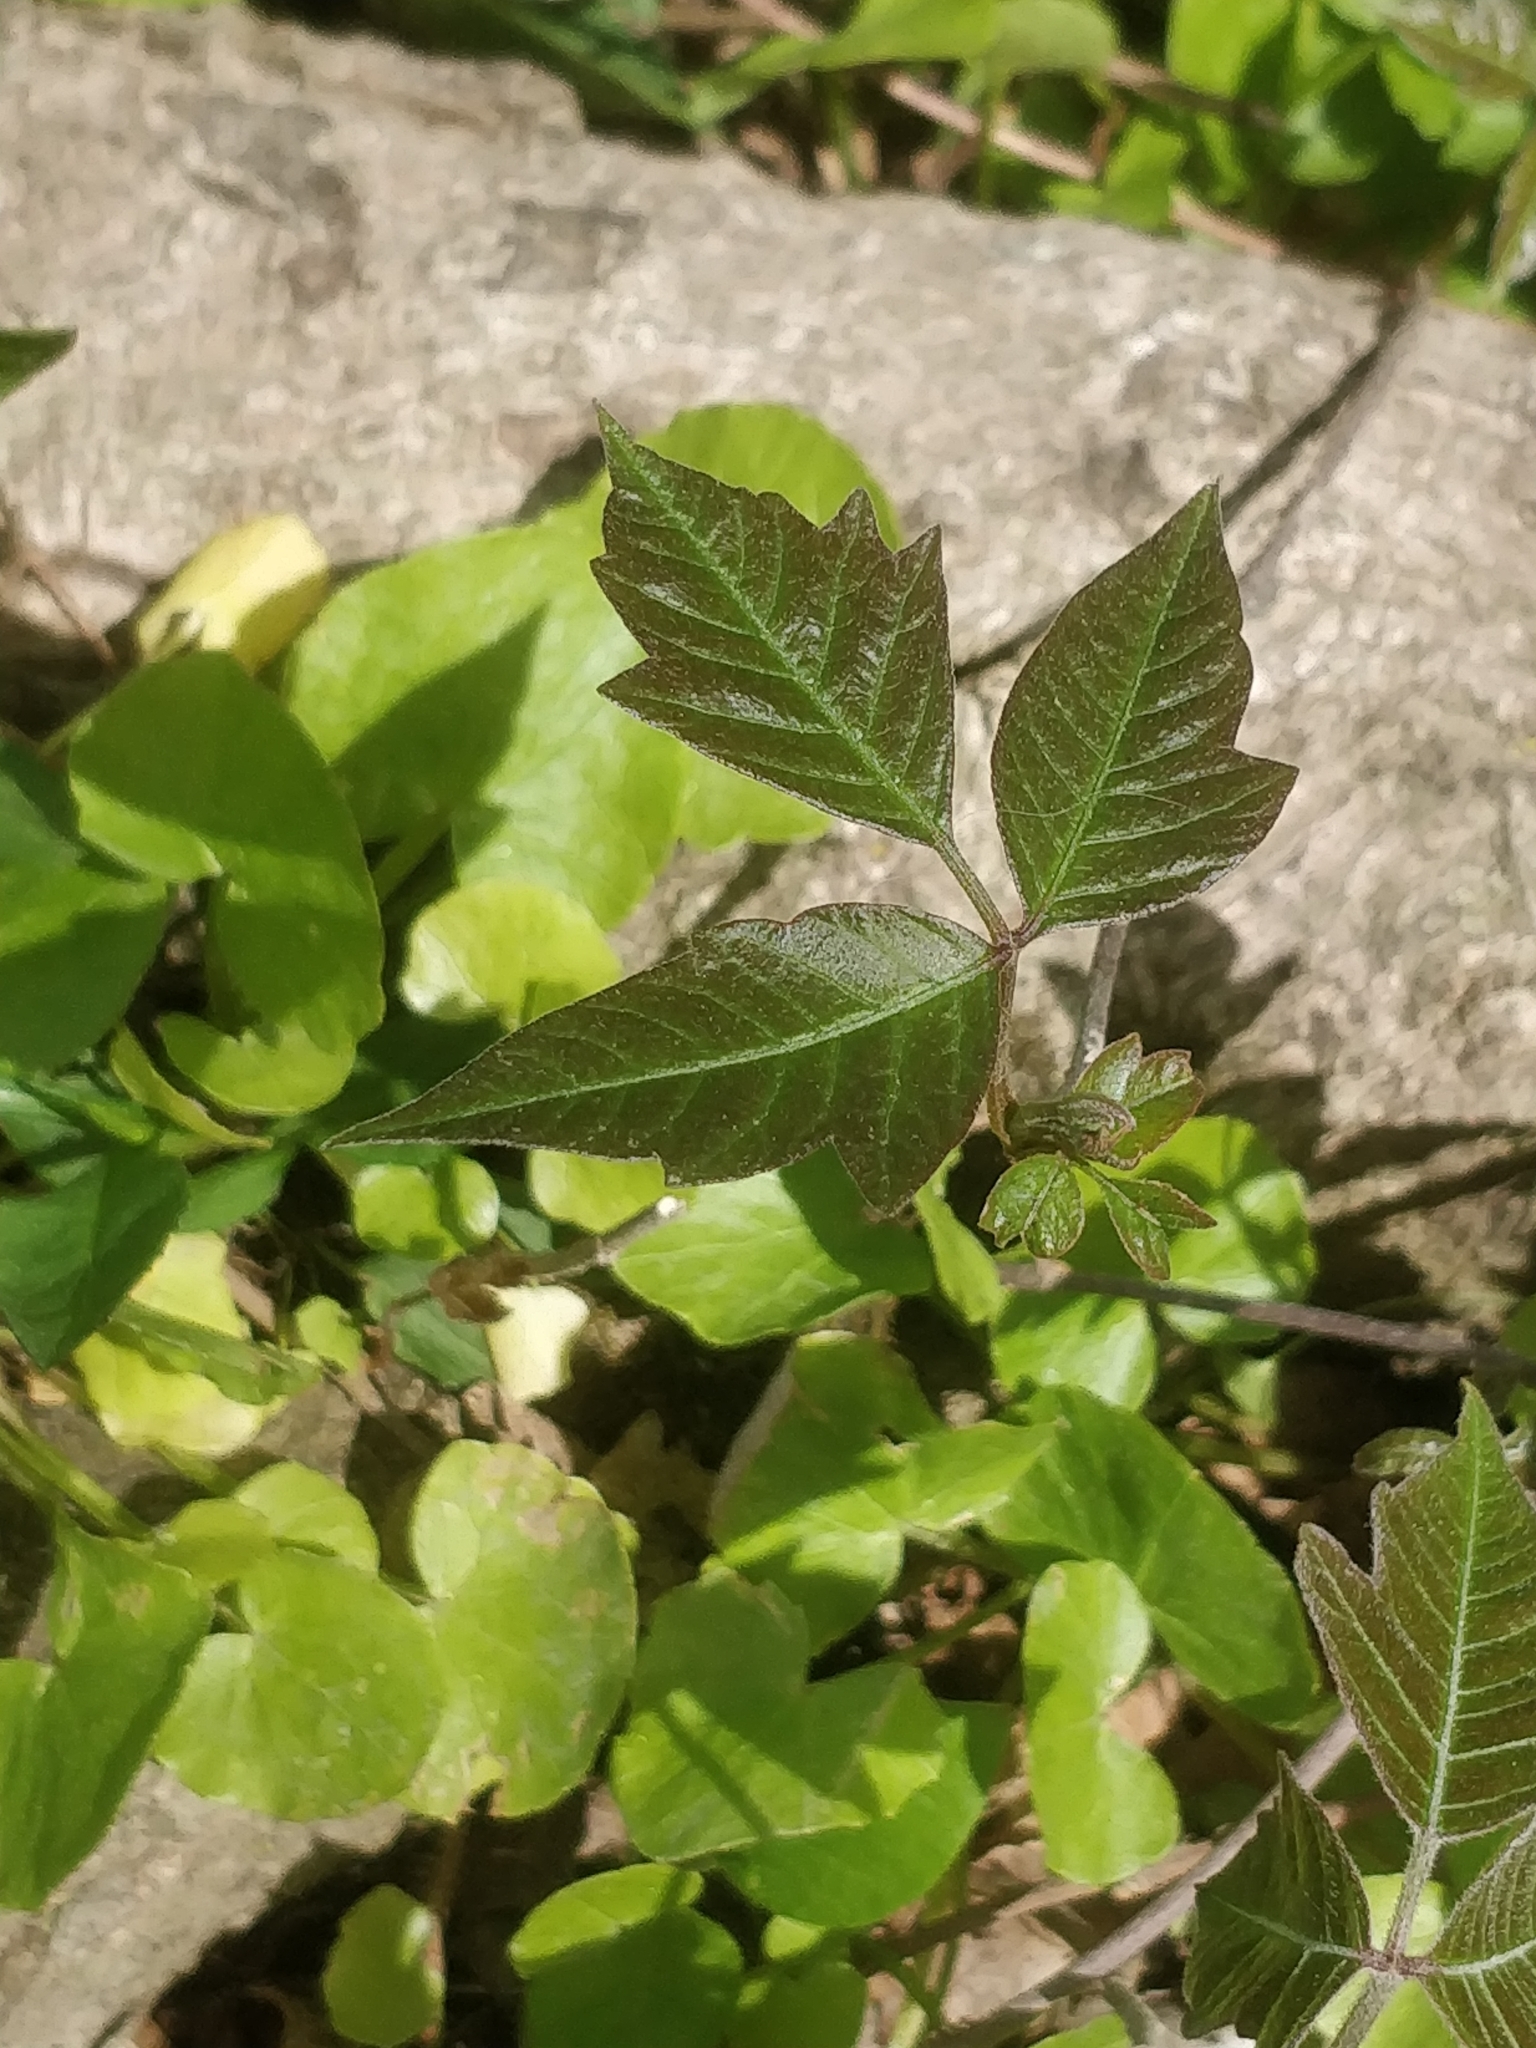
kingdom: Plantae
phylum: Tracheophyta
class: Magnoliopsida
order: Sapindales
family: Anacardiaceae
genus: Toxicodendron
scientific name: Toxicodendron radicans
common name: Poison ivy
